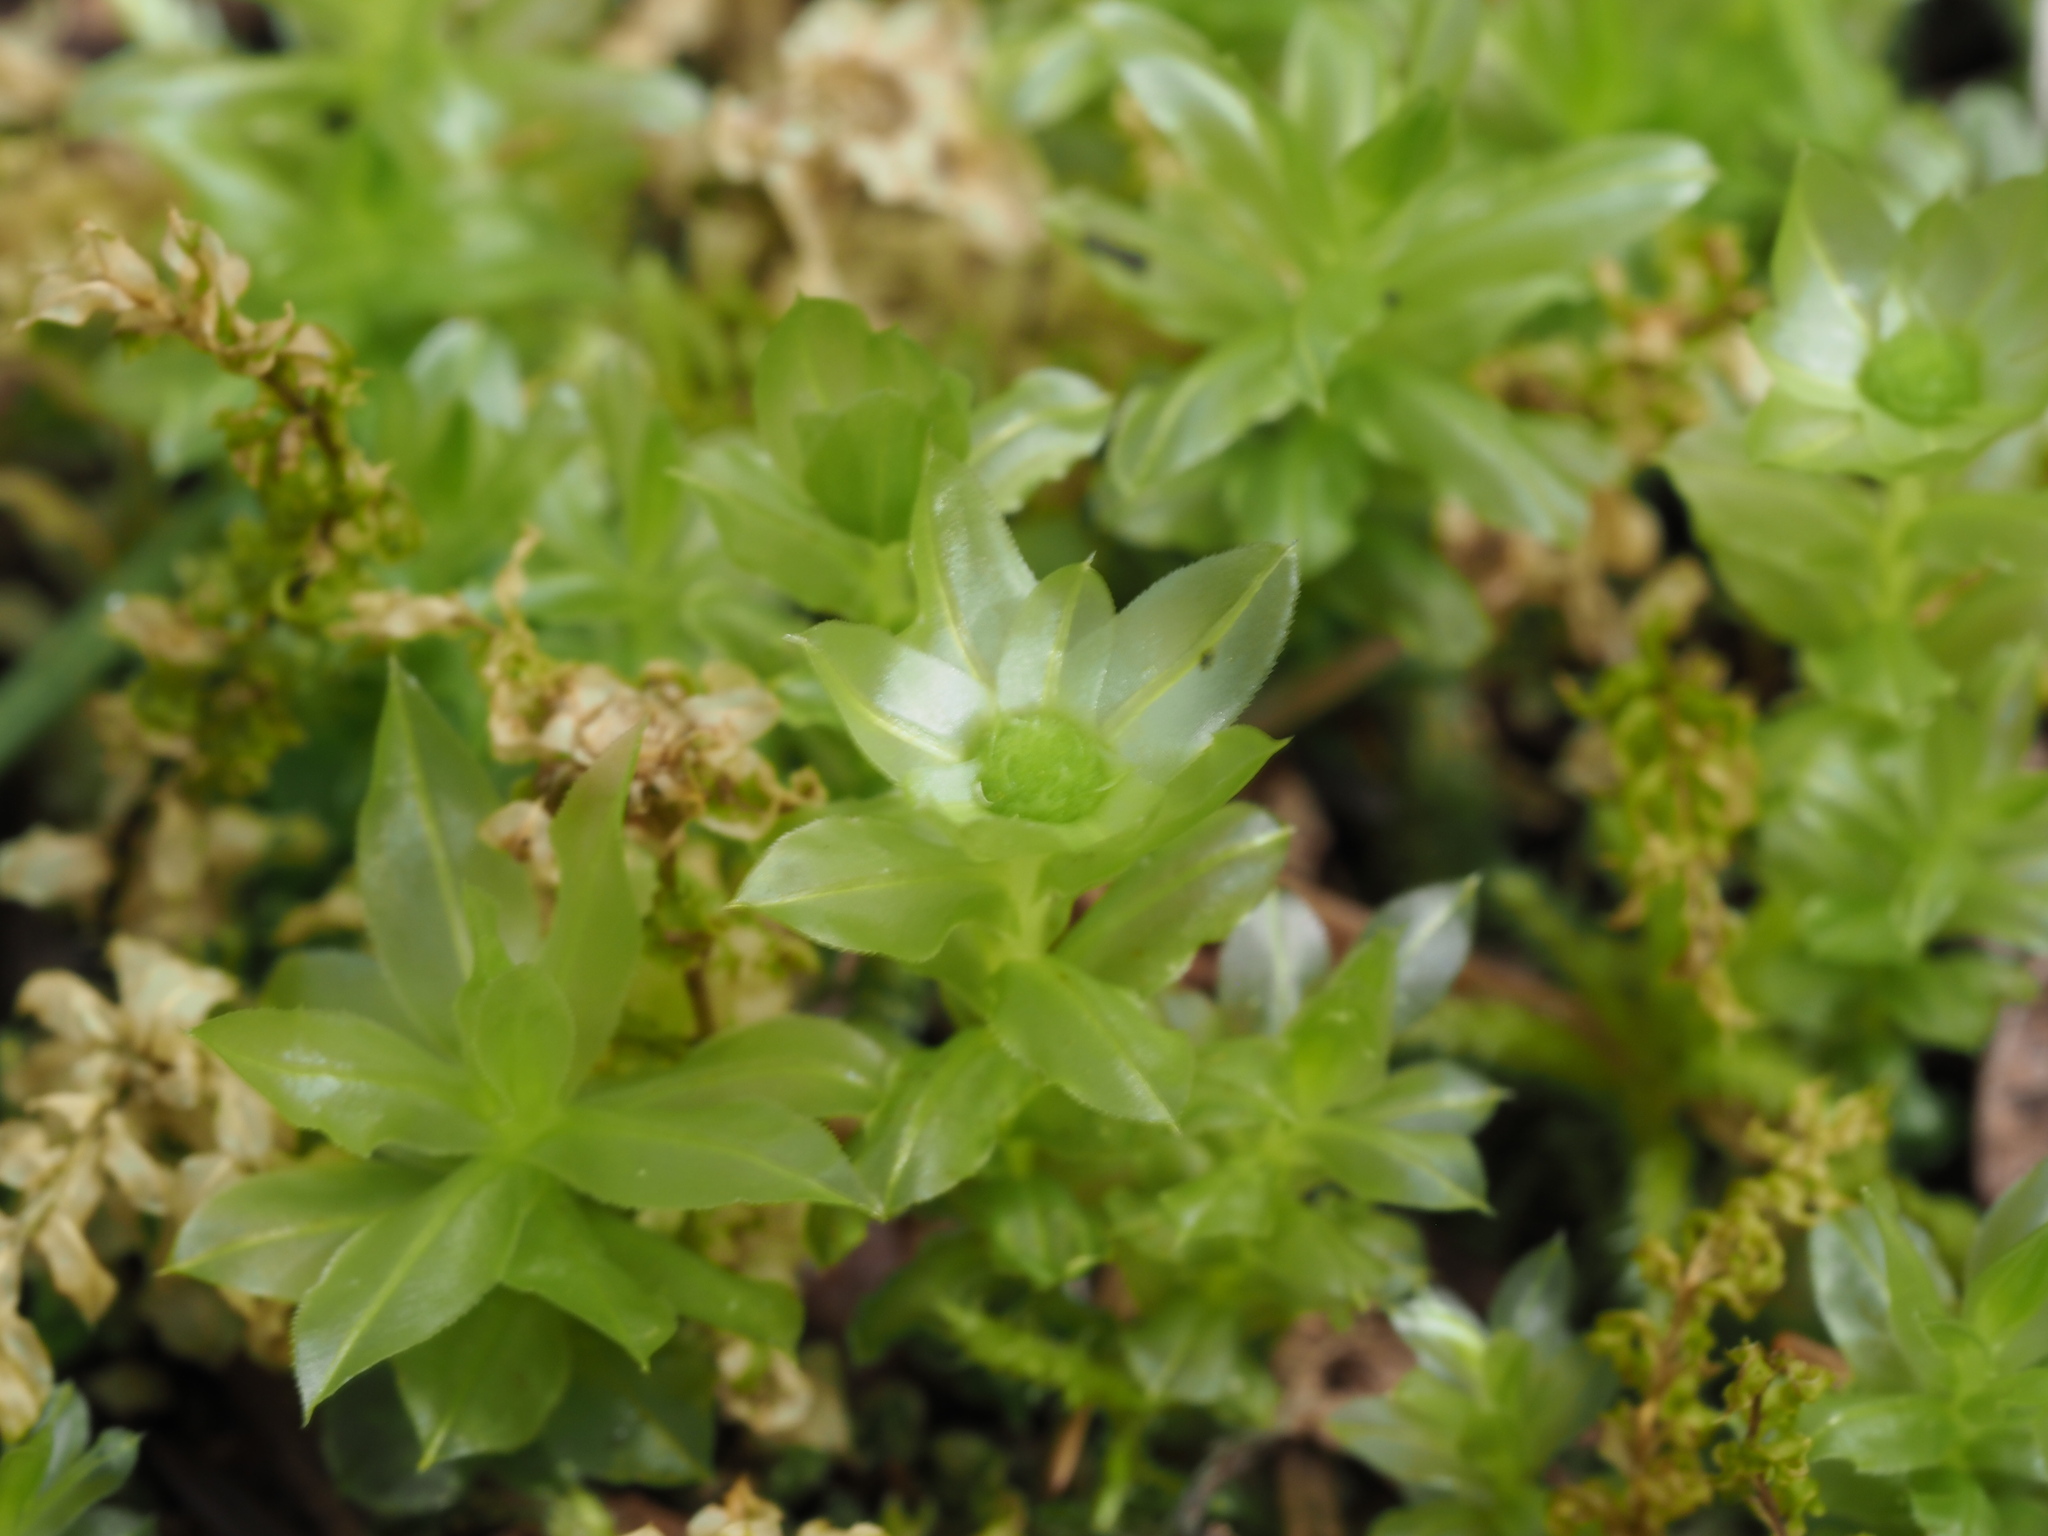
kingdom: Plantae
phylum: Bryophyta
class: Bryopsida
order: Bryales
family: Mniaceae
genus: Plagiomnium
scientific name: Plagiomnium insigne
